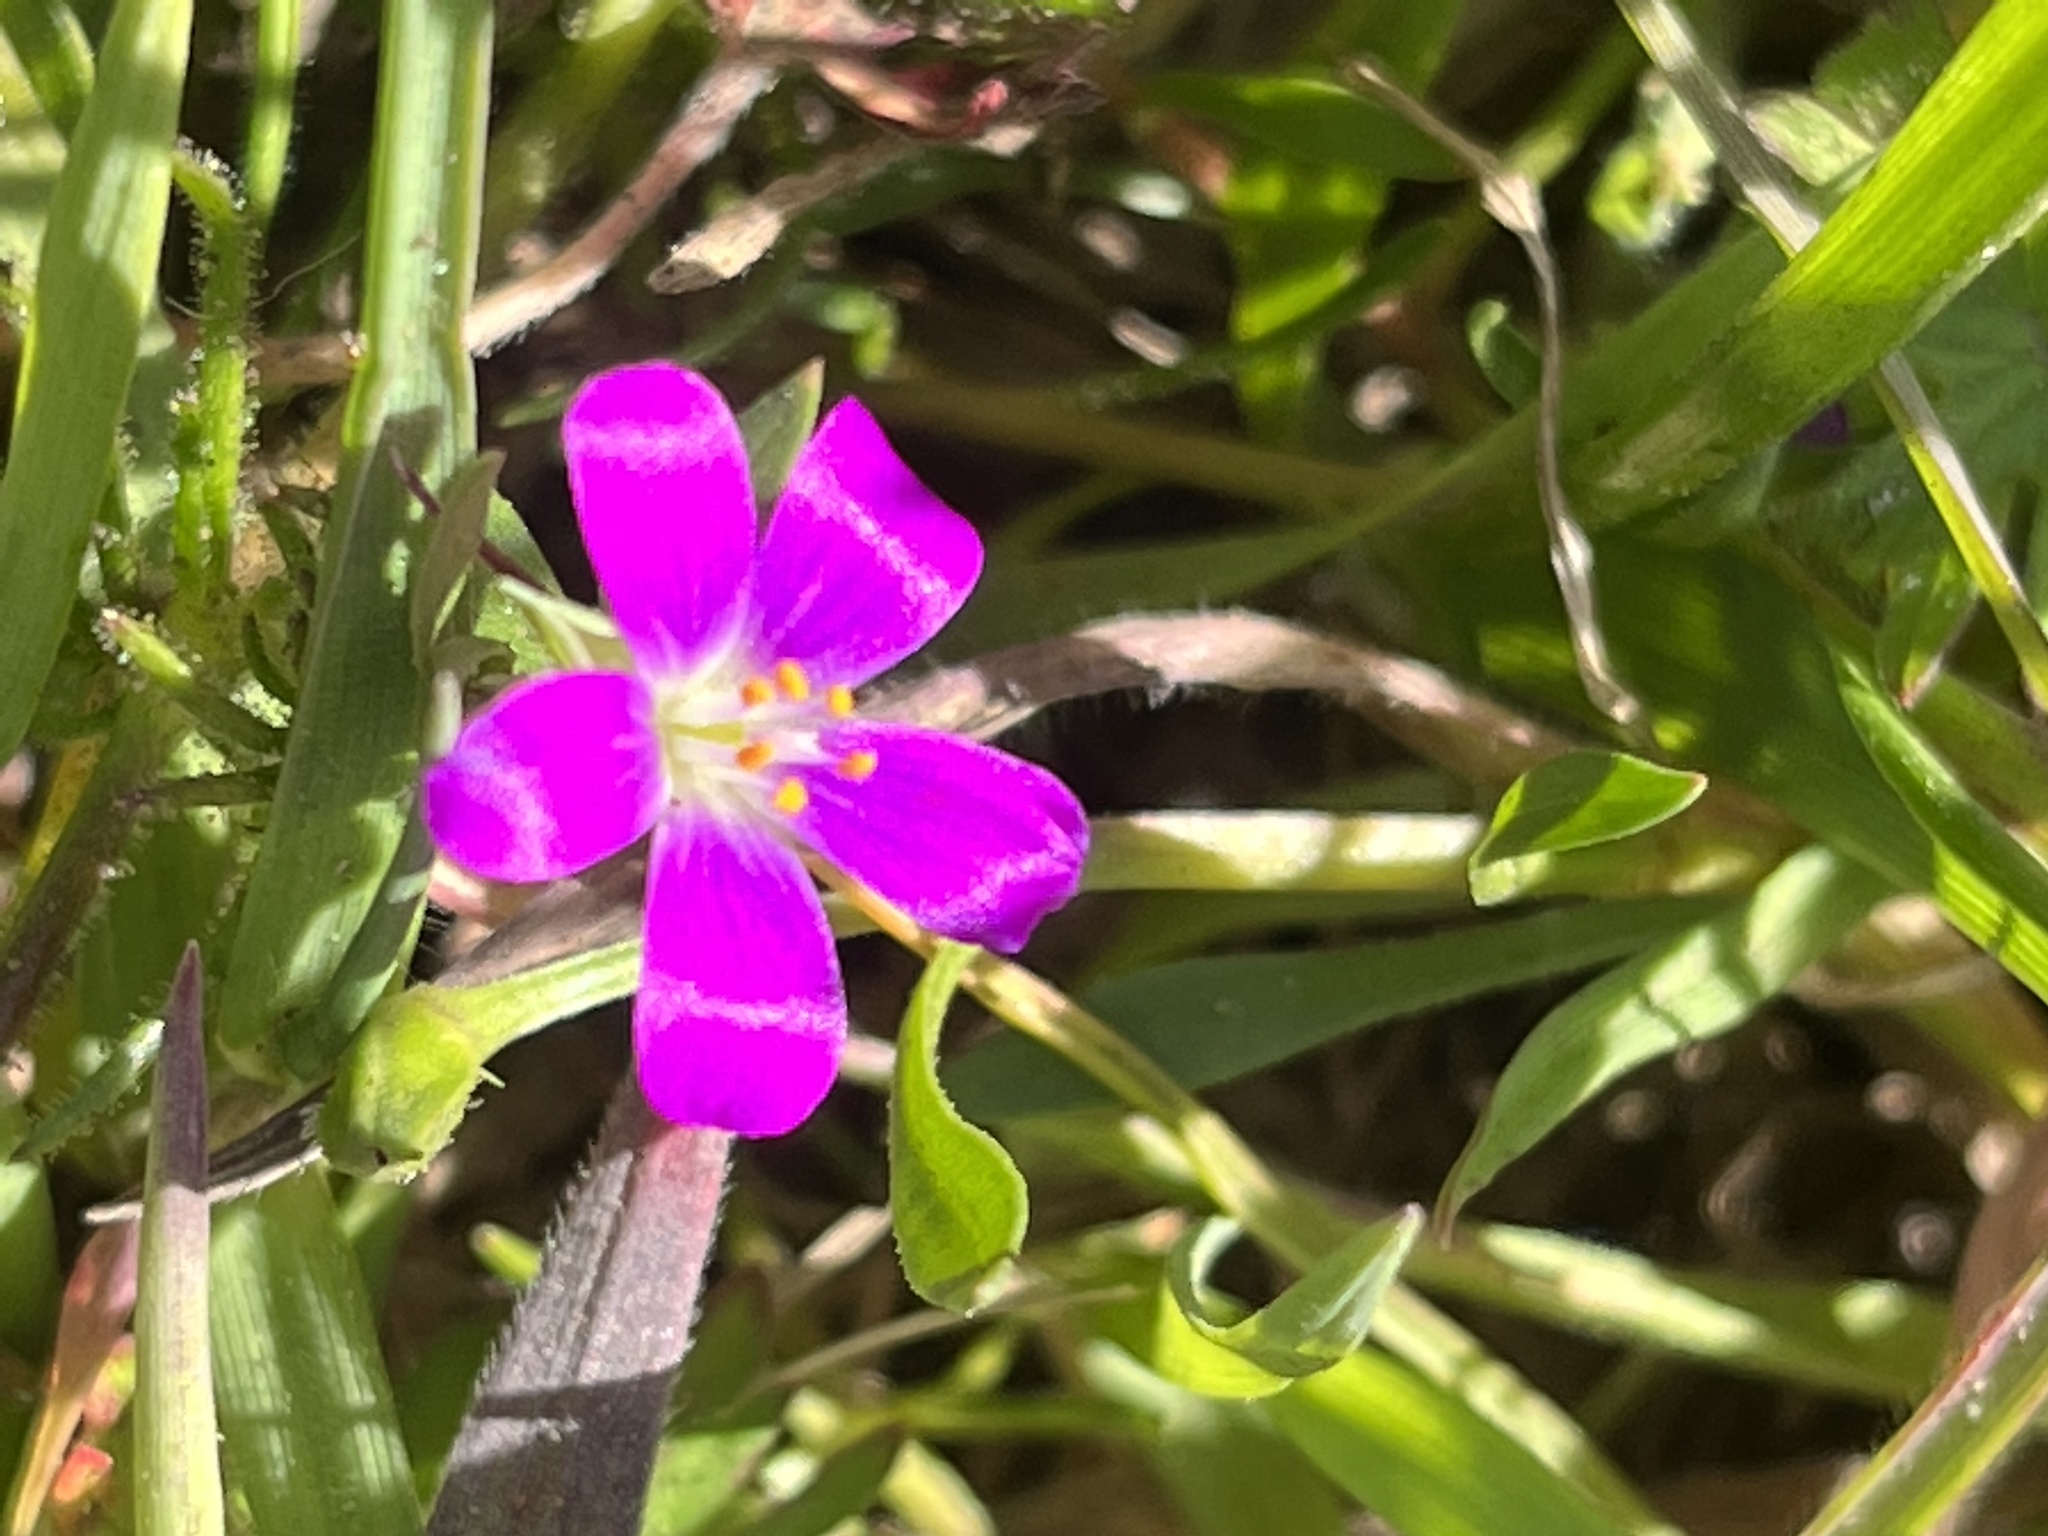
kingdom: Plantae
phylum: Tracheophyta
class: Magnoliopsida
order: Caryophyllales
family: Montiaceae
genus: Calandrinia
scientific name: Calandrinia menziesii
